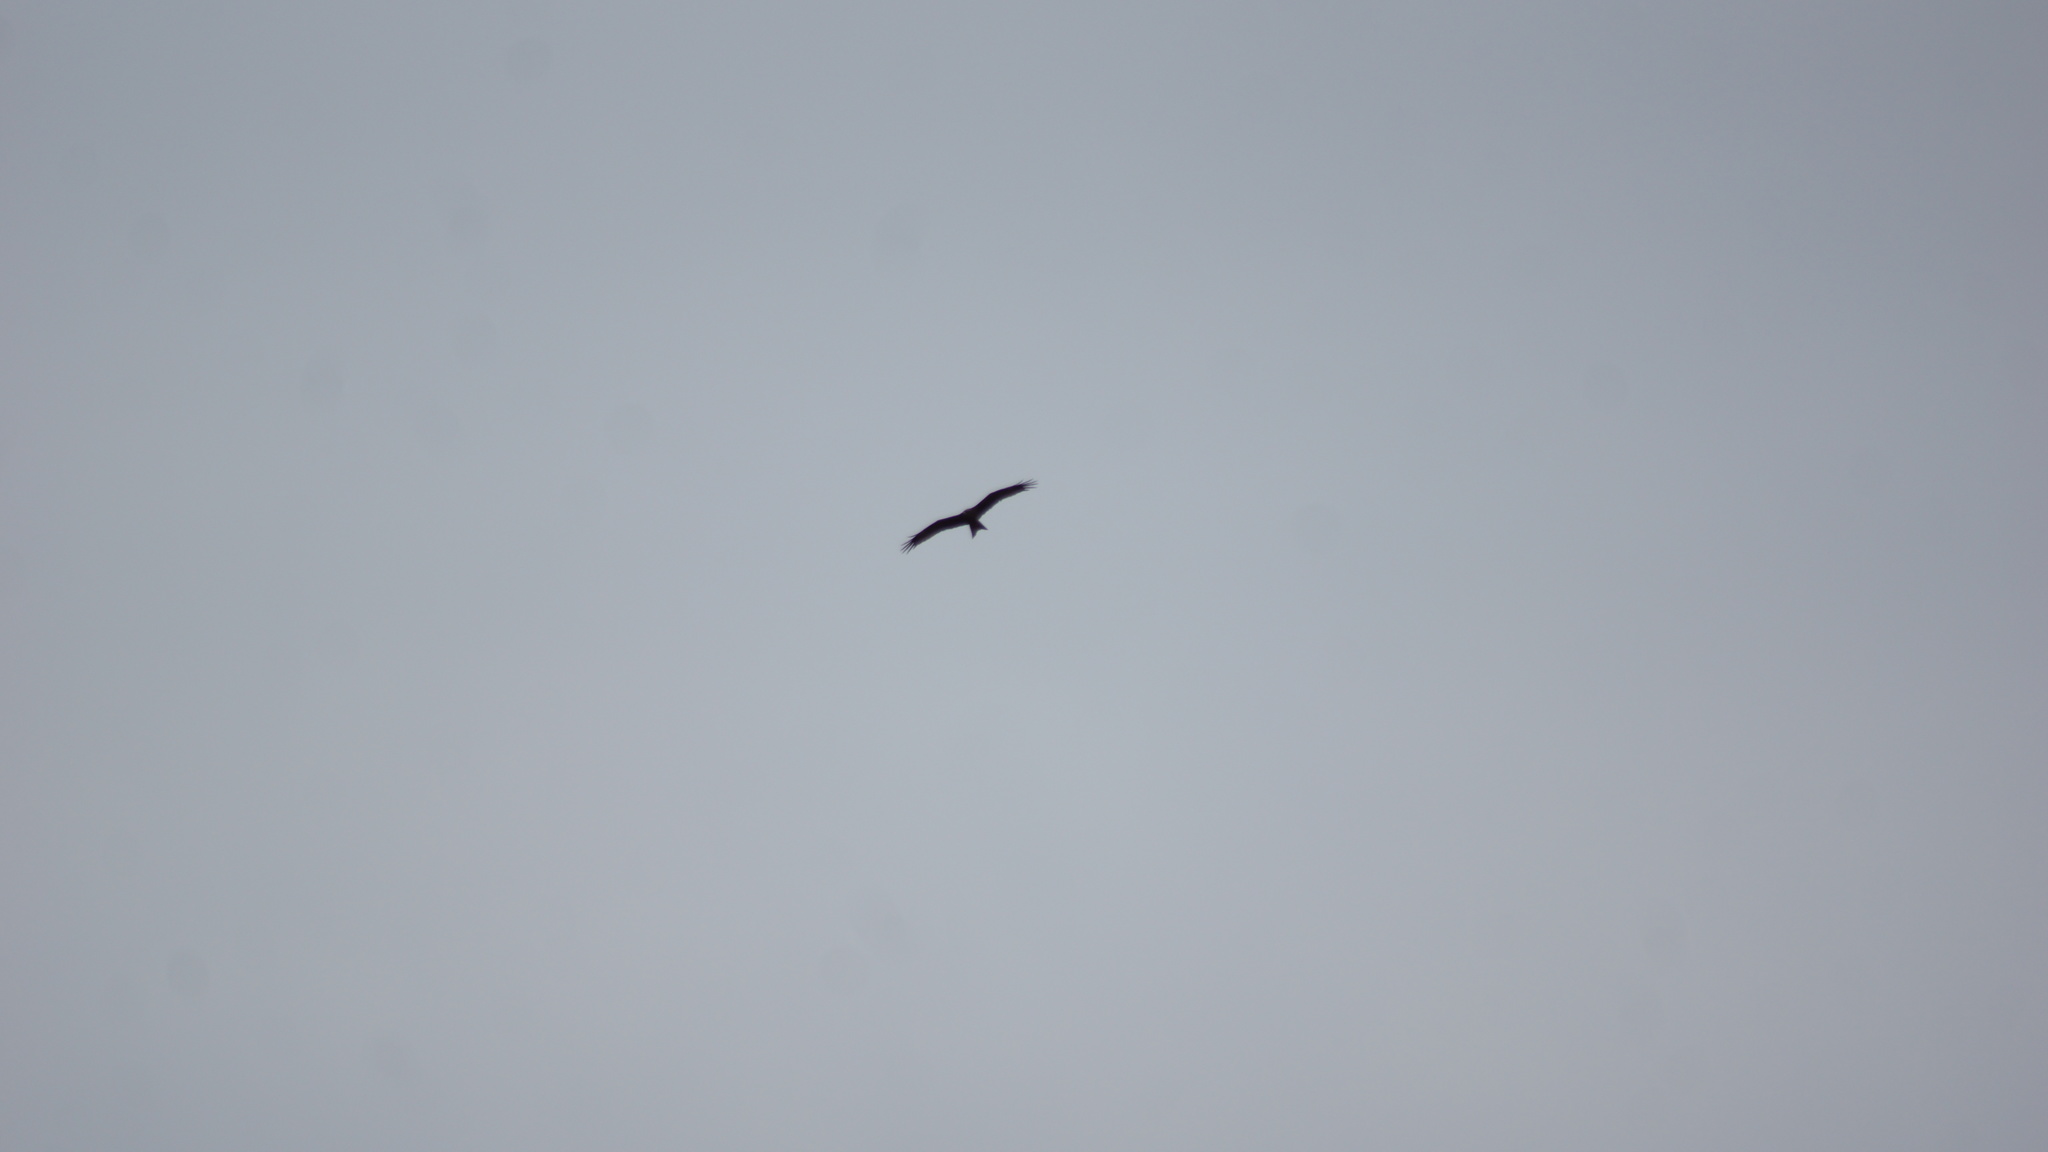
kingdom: Animalia
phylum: Chordata
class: Aves
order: Accipitriformes
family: Accipitridae
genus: Milvus
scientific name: Milvus migrans
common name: Black kite
